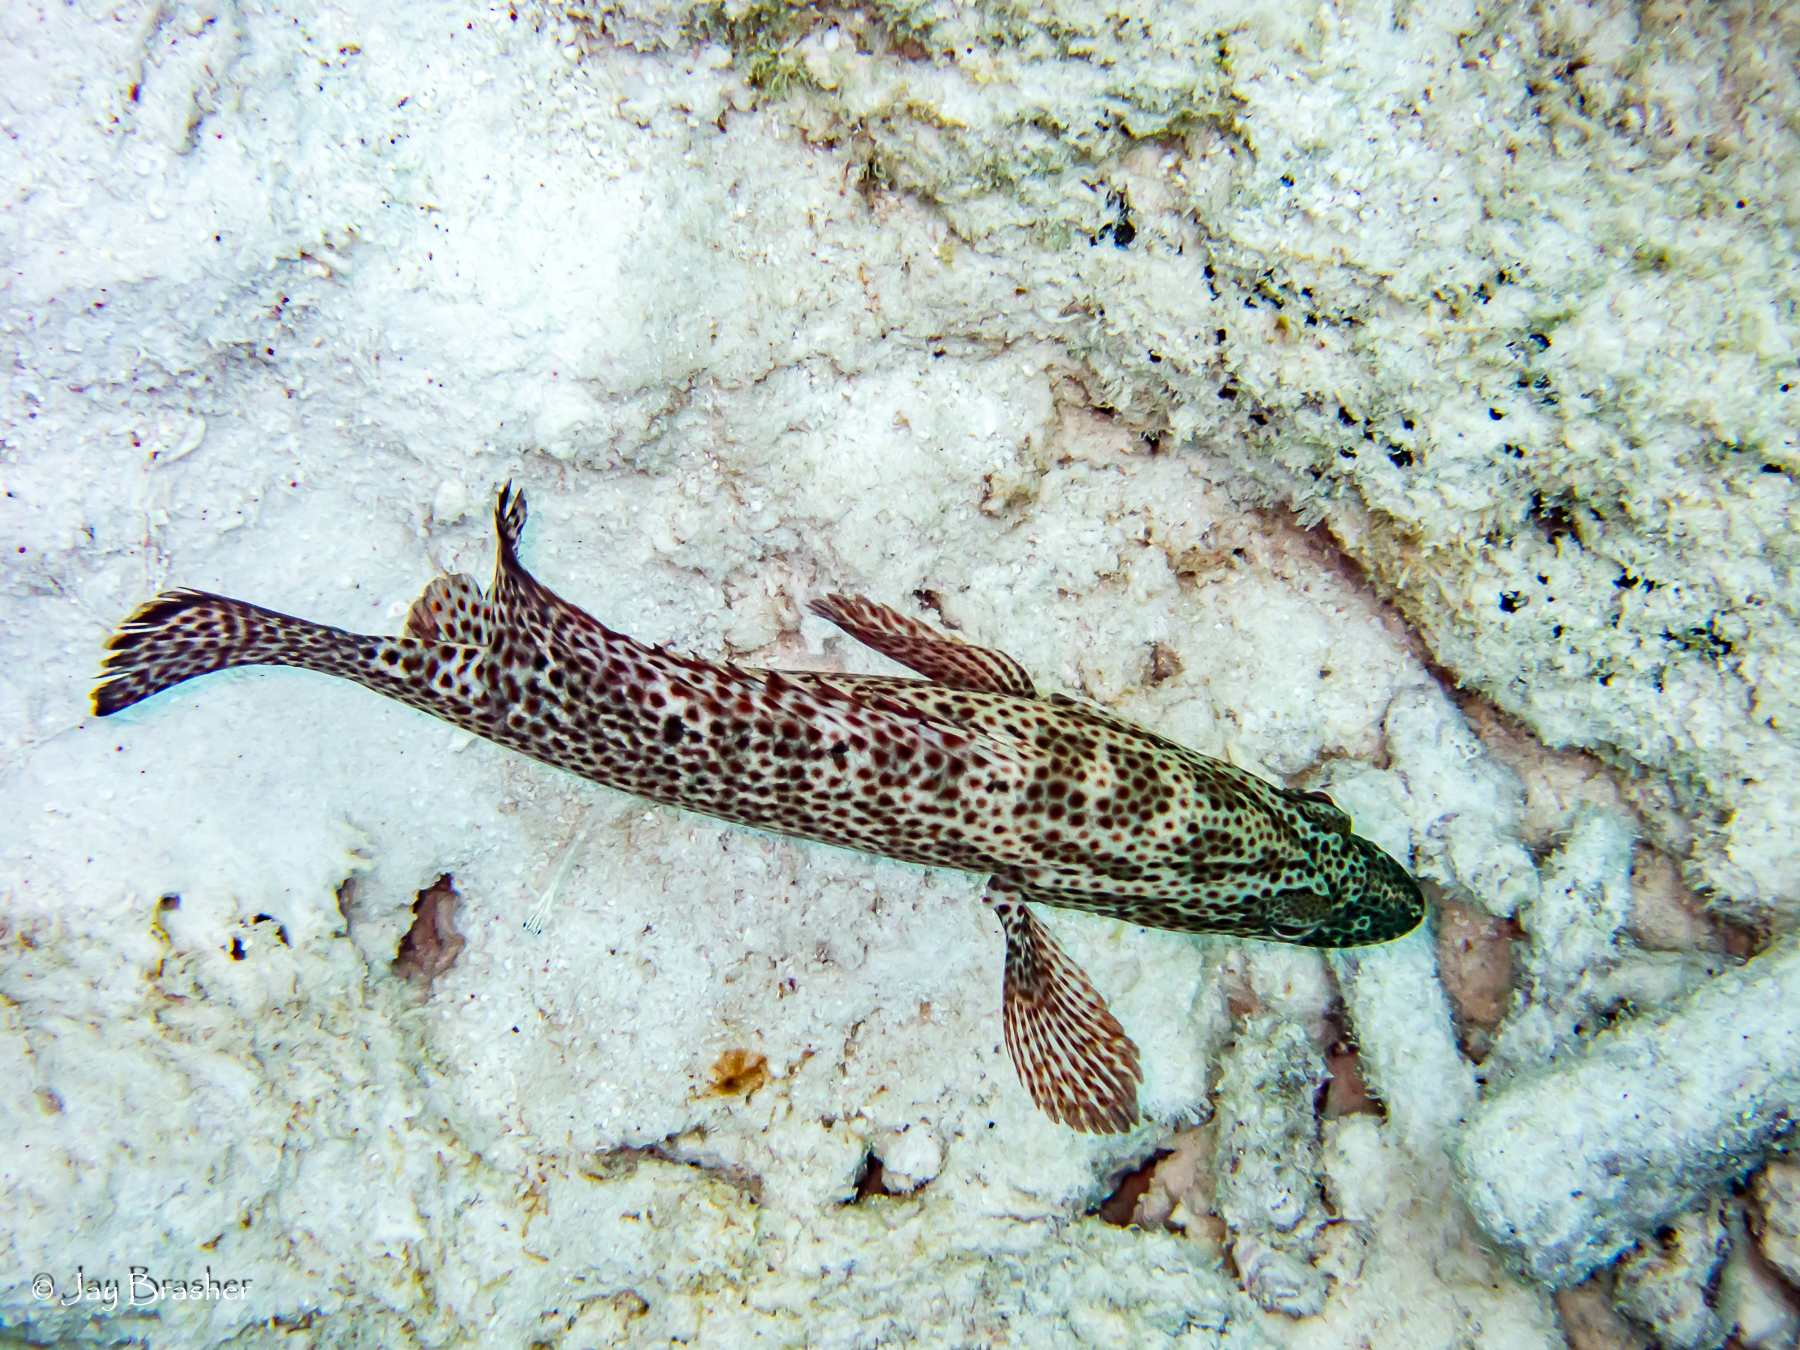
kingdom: Animalia
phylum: Chordata
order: Perciformes
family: Serranidae
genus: Cephalopholis
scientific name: Cephalopholis cruentata
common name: Graysby
